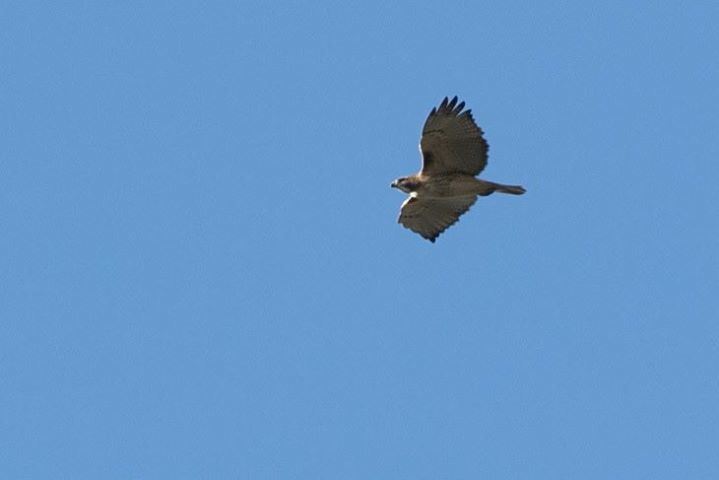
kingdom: Animalia
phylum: Chordata
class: Aves
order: Accipitriformes
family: Accipitridae
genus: Buteo
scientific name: Buteo jamaicensis
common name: Red-tailed hawk
